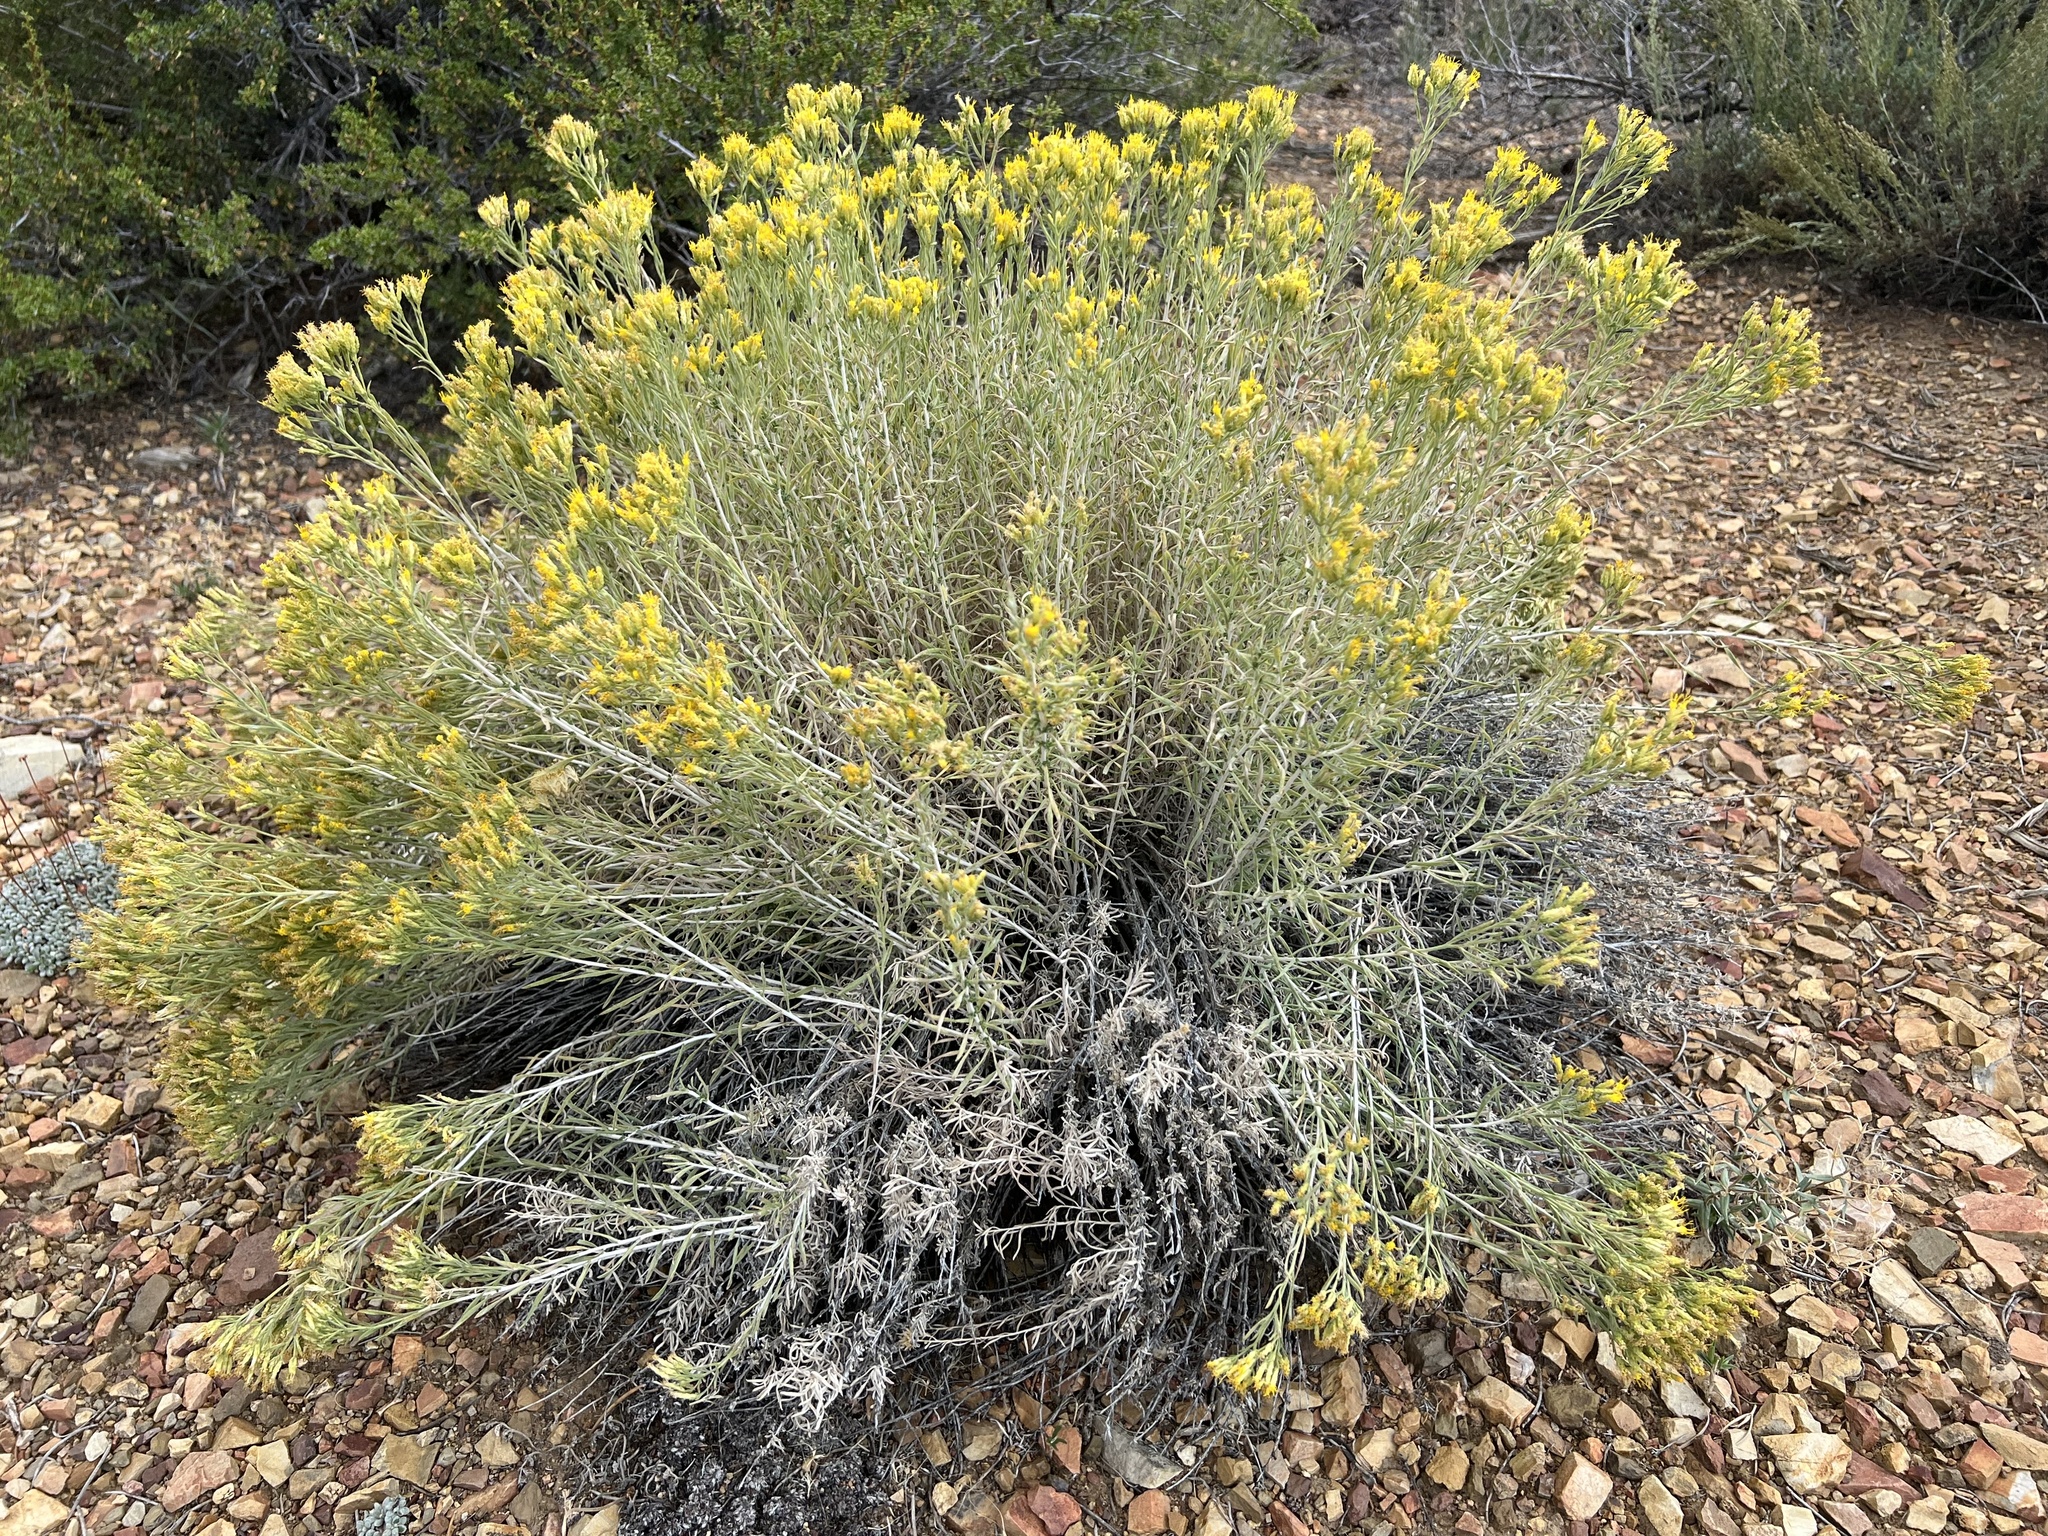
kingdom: Plantae
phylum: Tracheophyta
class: Magnoliopsida
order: Asterales
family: Asteraceae
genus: Chrysothamnus
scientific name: Chrysothamnus viscidiflorus
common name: Yellow rabbitbrush
